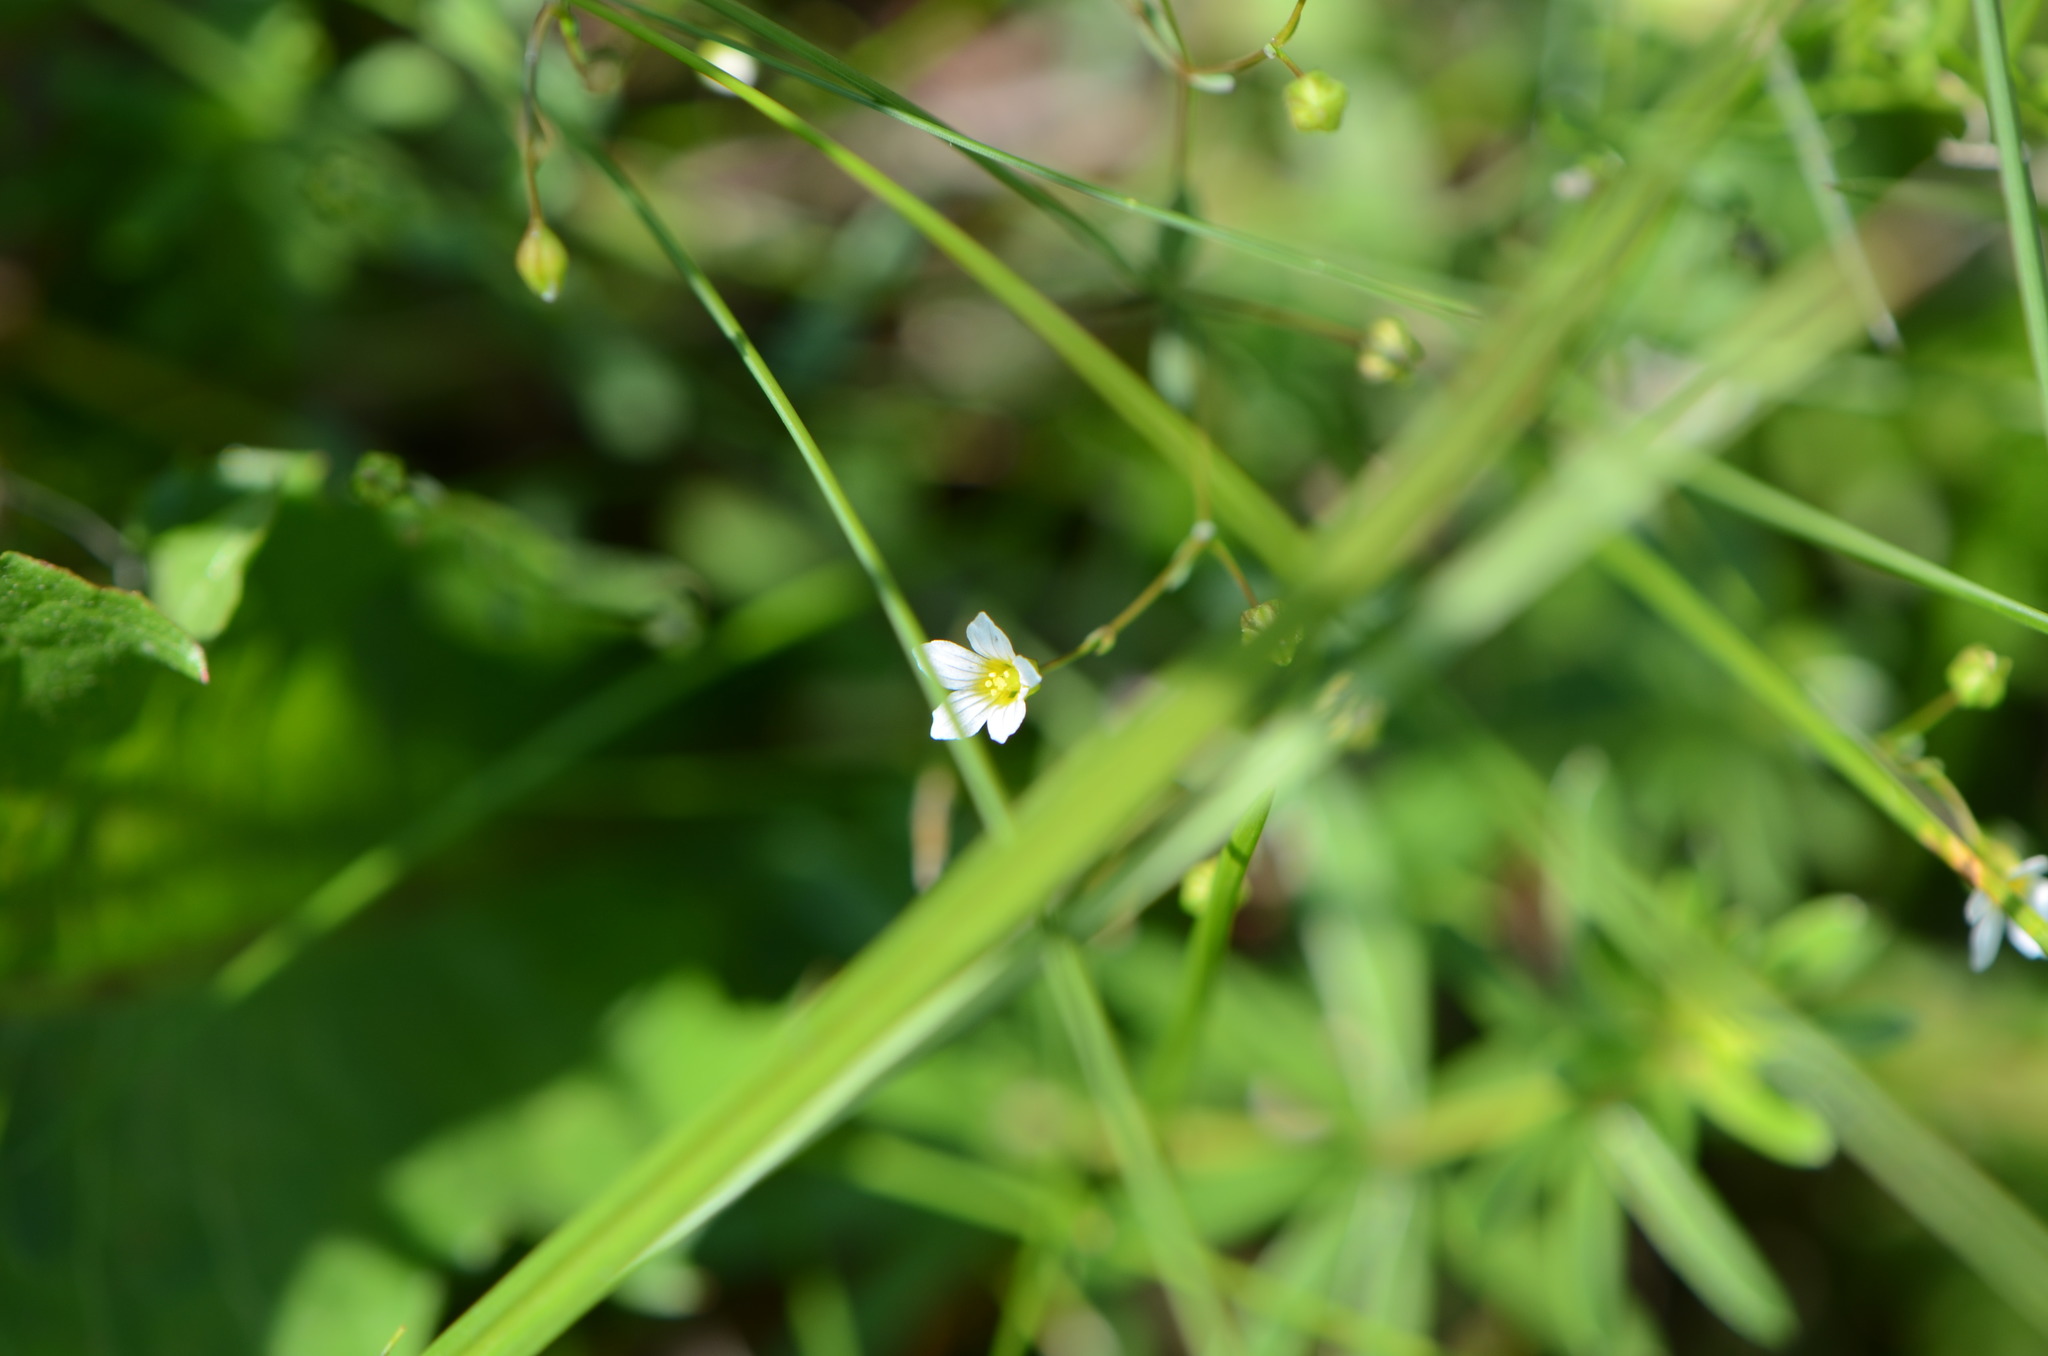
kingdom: Plantae
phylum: Tracheophyta
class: Magnoliopsida
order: Malpighiales
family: Linaceae
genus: Linum
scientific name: Linum catharticum
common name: Fairy flax
